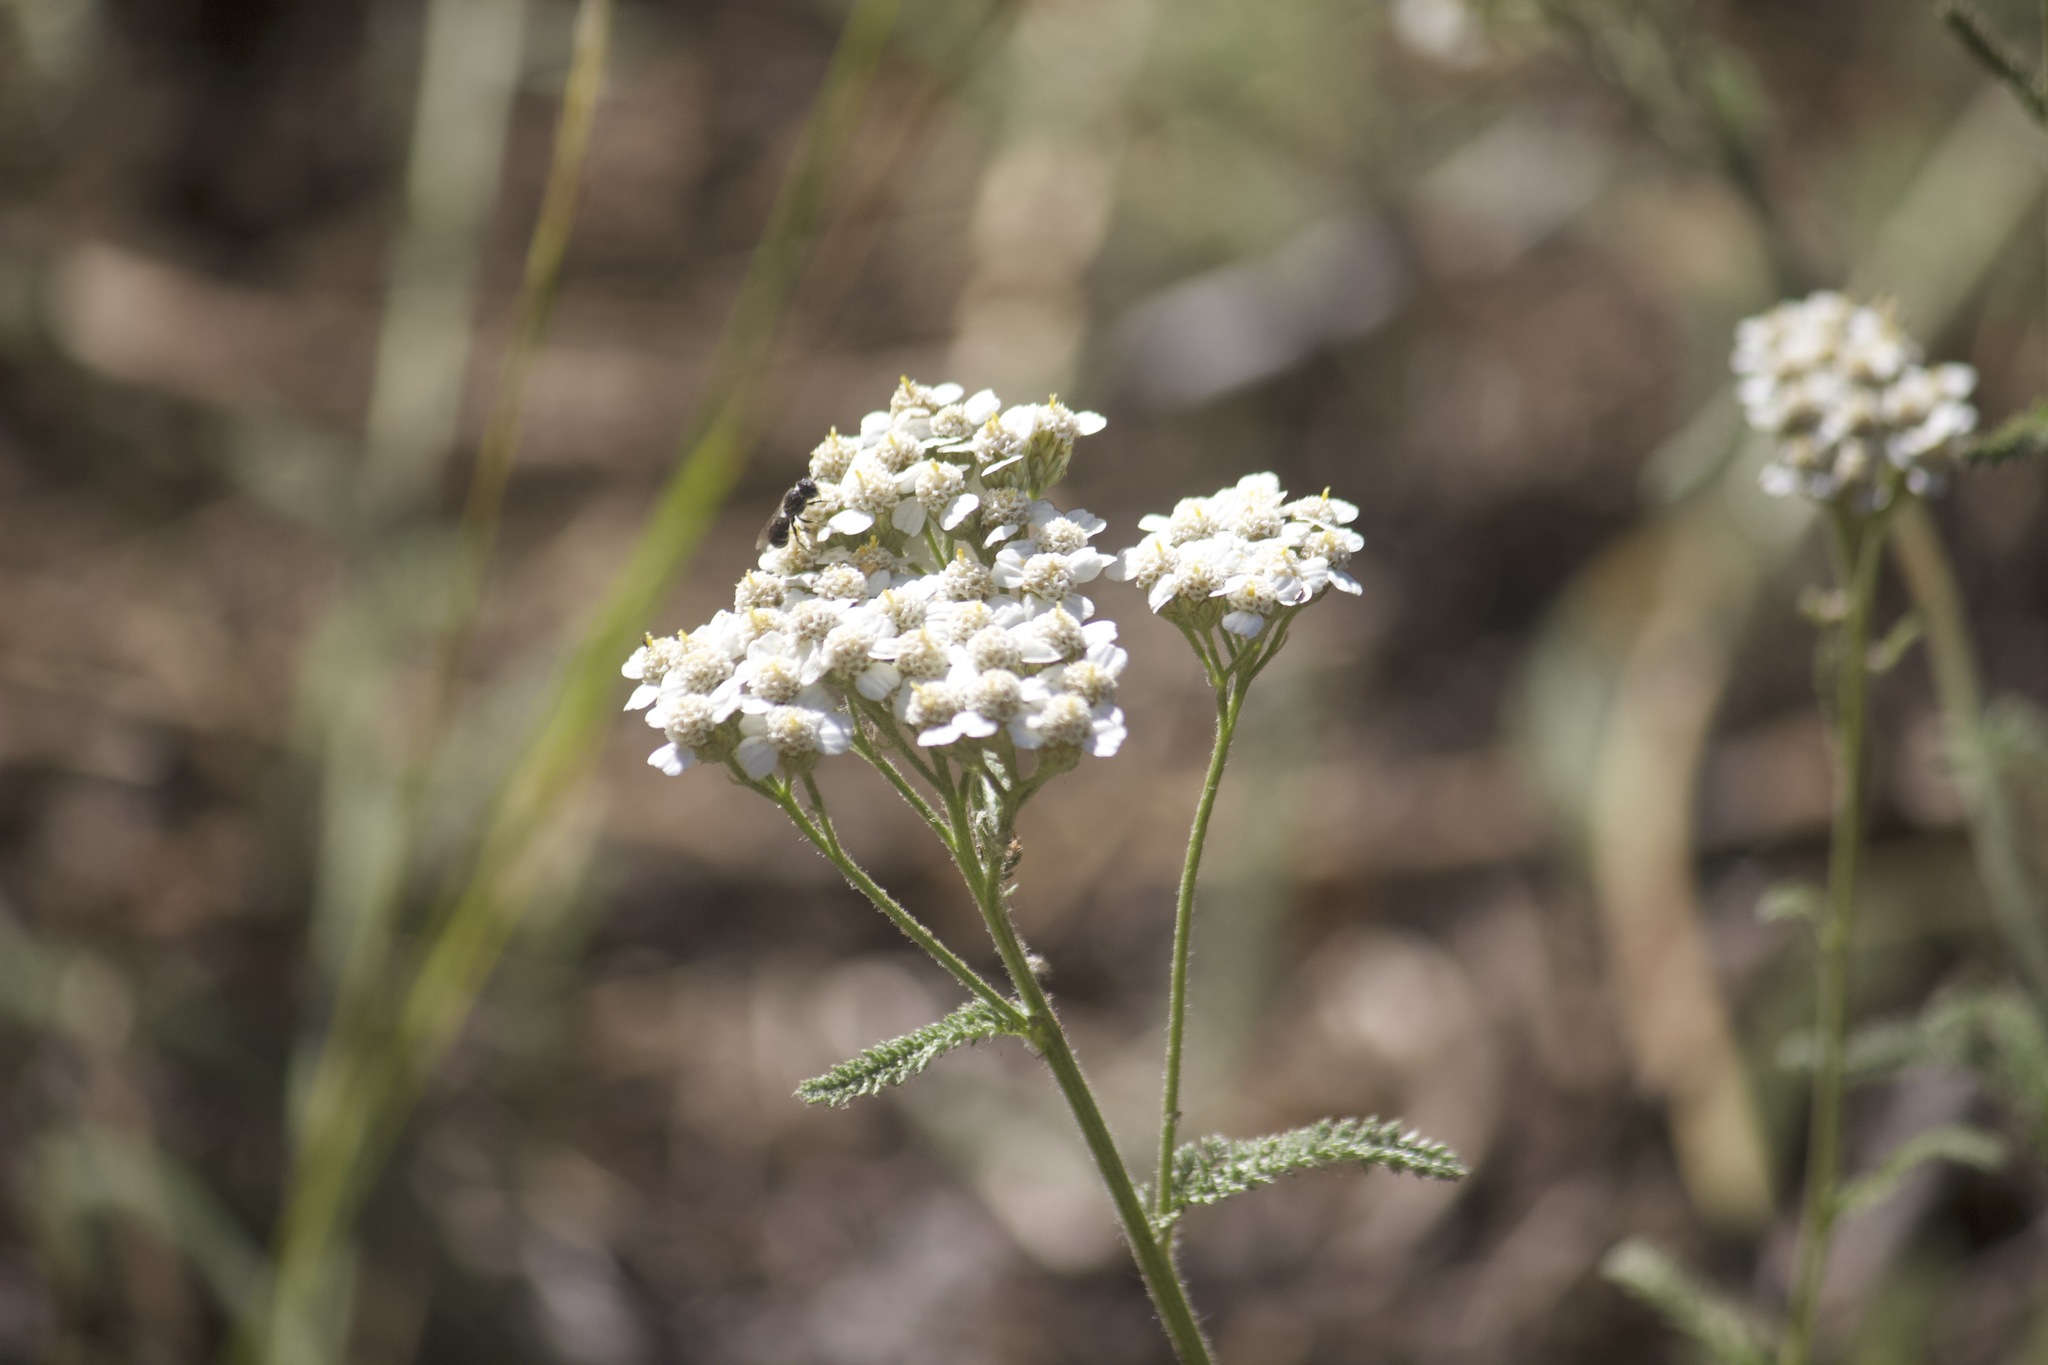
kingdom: Plantae
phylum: Tracheophyta
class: Magnoliopsida
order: Asterales
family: Asteraceae
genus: Achillea
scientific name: Achillea millefolium
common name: Yarrow
